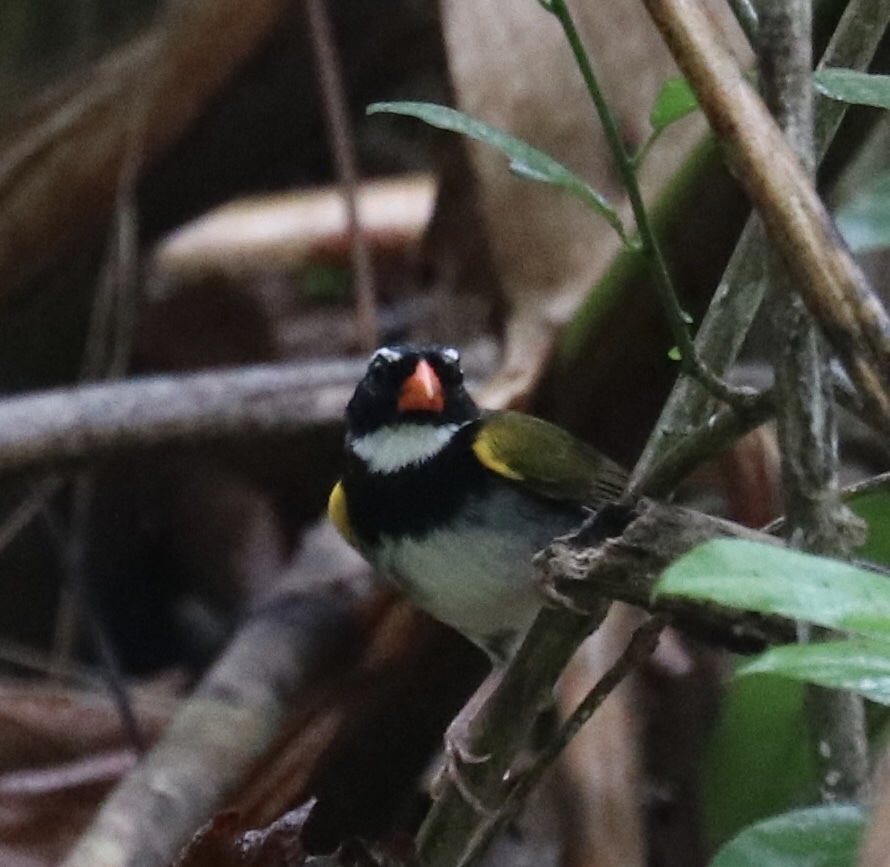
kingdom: Animalia
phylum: Chordata
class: Aves
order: Passeriformes
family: Passerellidae
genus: Arremon
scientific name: Arremon aurantiirostris
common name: Orange-billed sparrow
